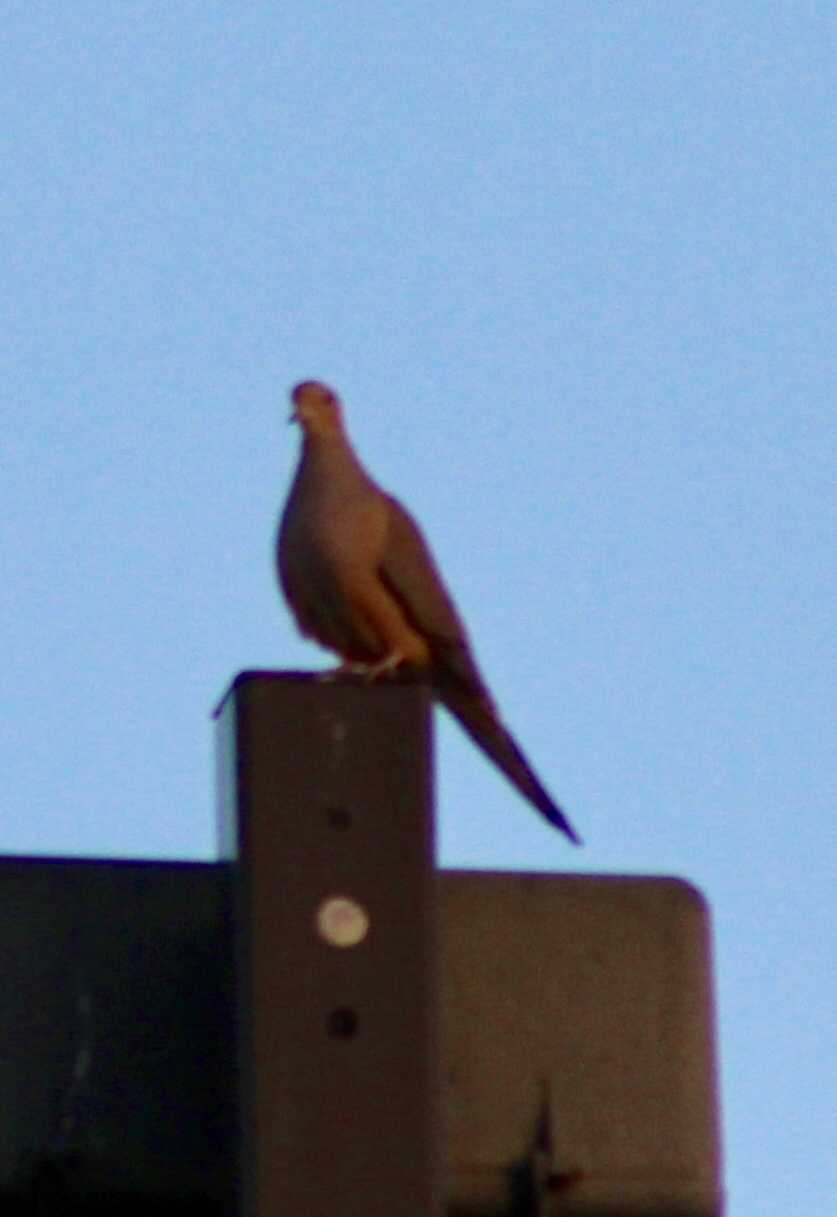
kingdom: Animalia
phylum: Chordata
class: Aves
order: Columbiformes
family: Columbidae
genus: Zenaida
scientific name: Zenaida macroura
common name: Mourning dove
